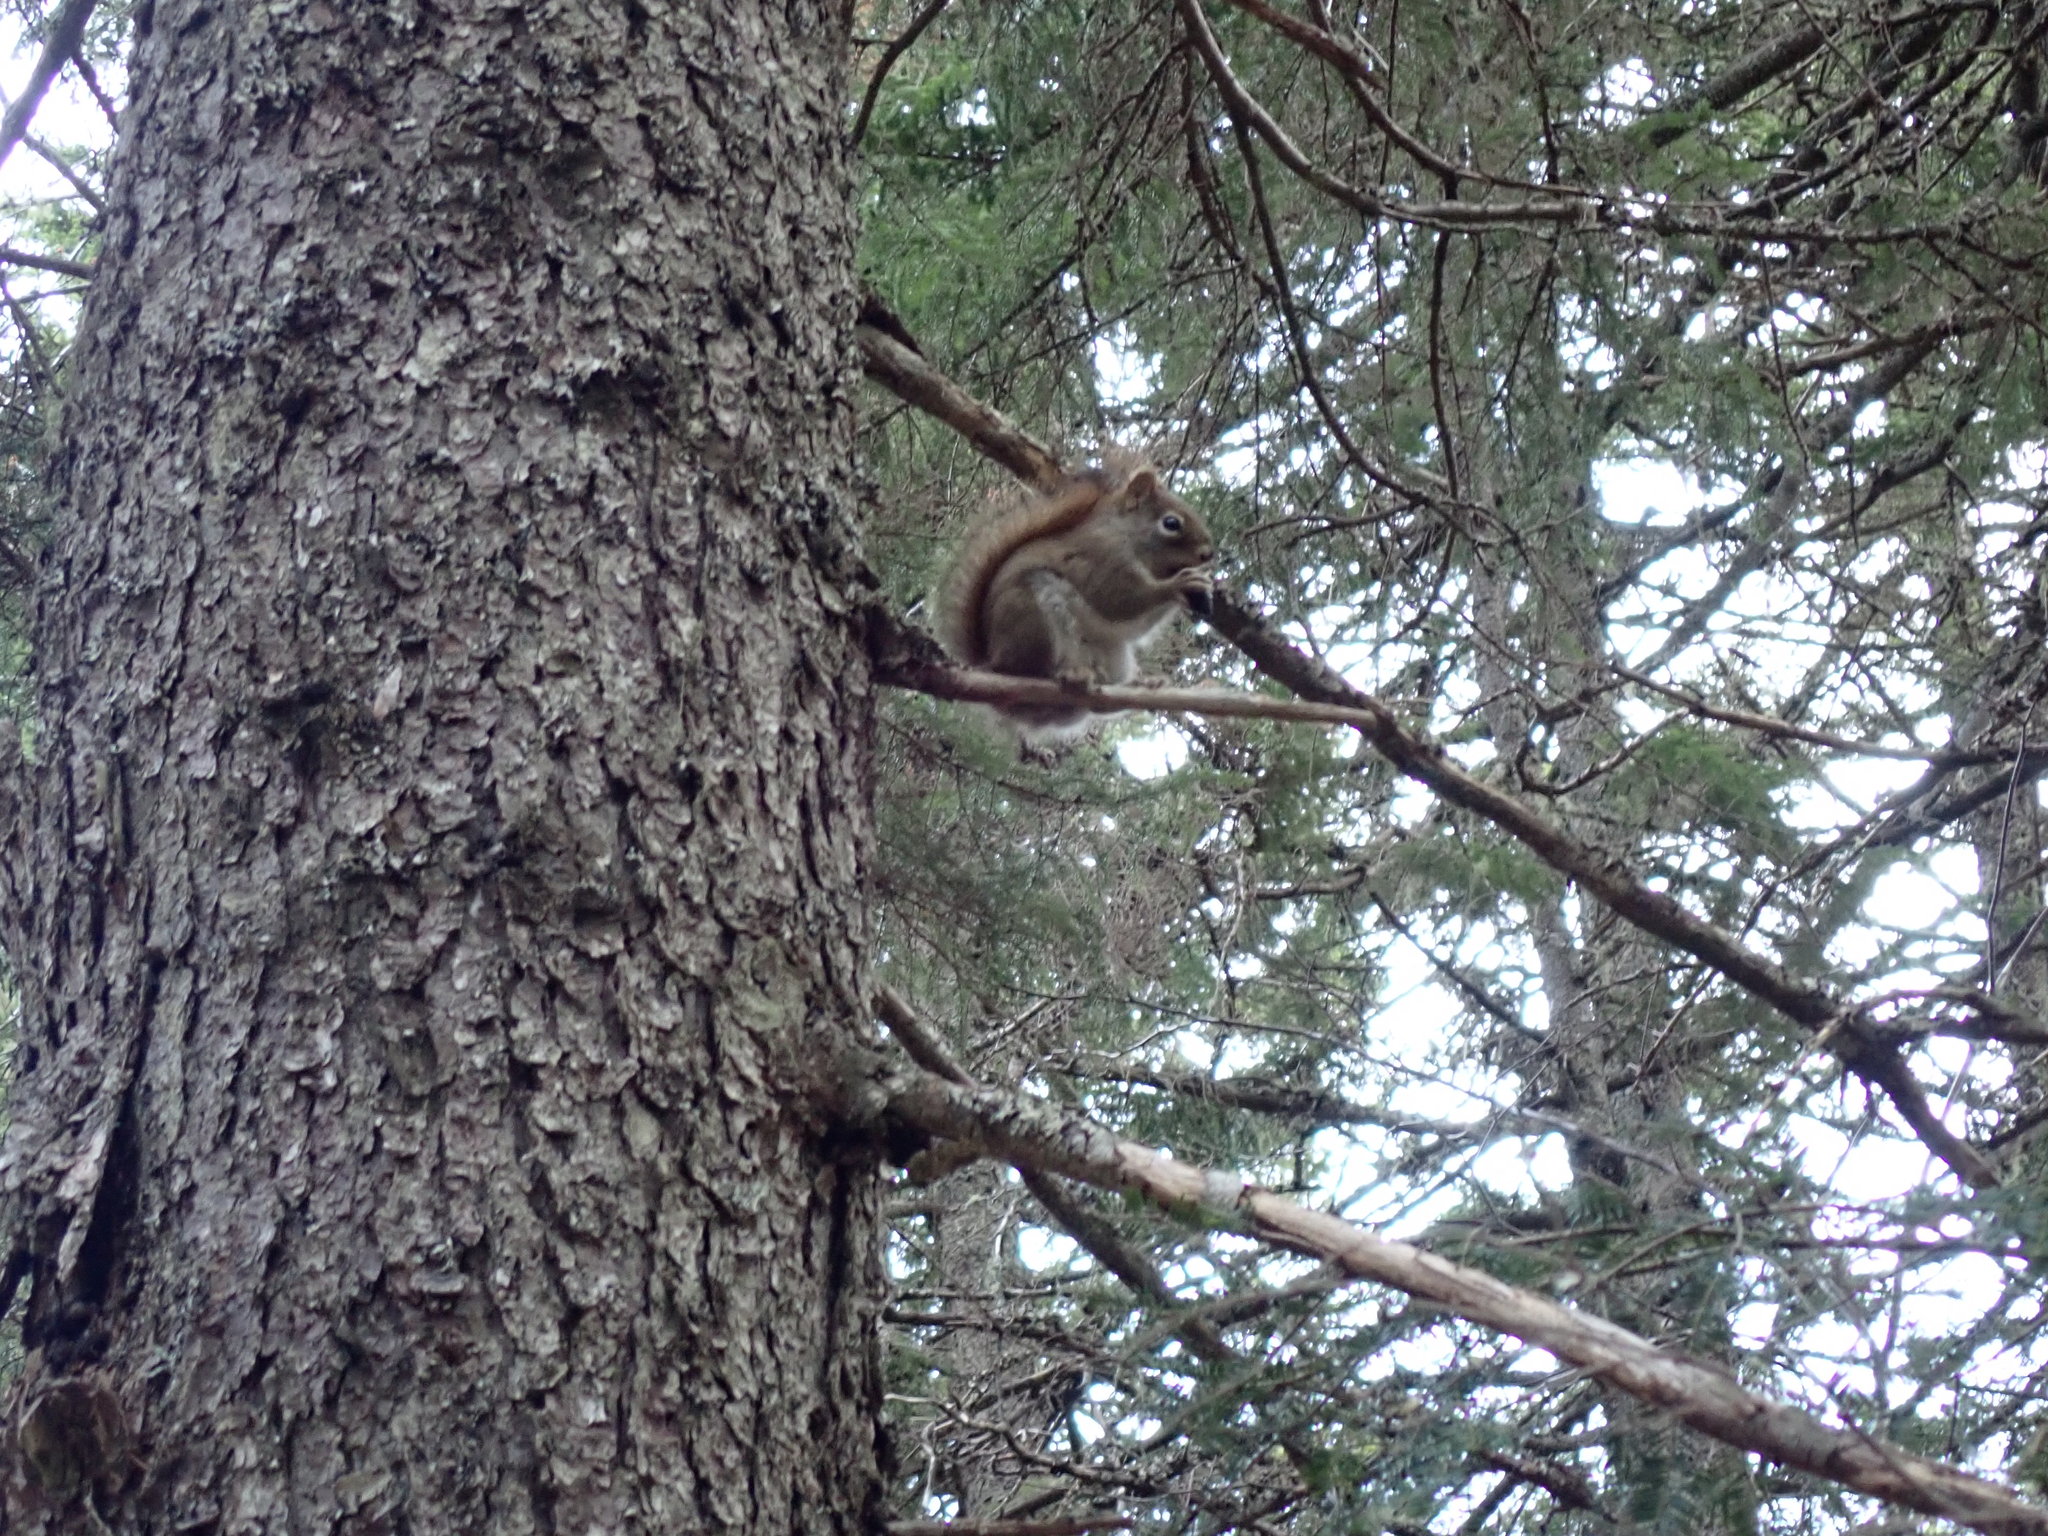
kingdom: Animalia
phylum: Chordata
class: Mammalia
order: Rodentia
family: Sciuridae
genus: Tamiasciurus
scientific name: Tamiasciurus hudsonicus
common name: Red squirrel
